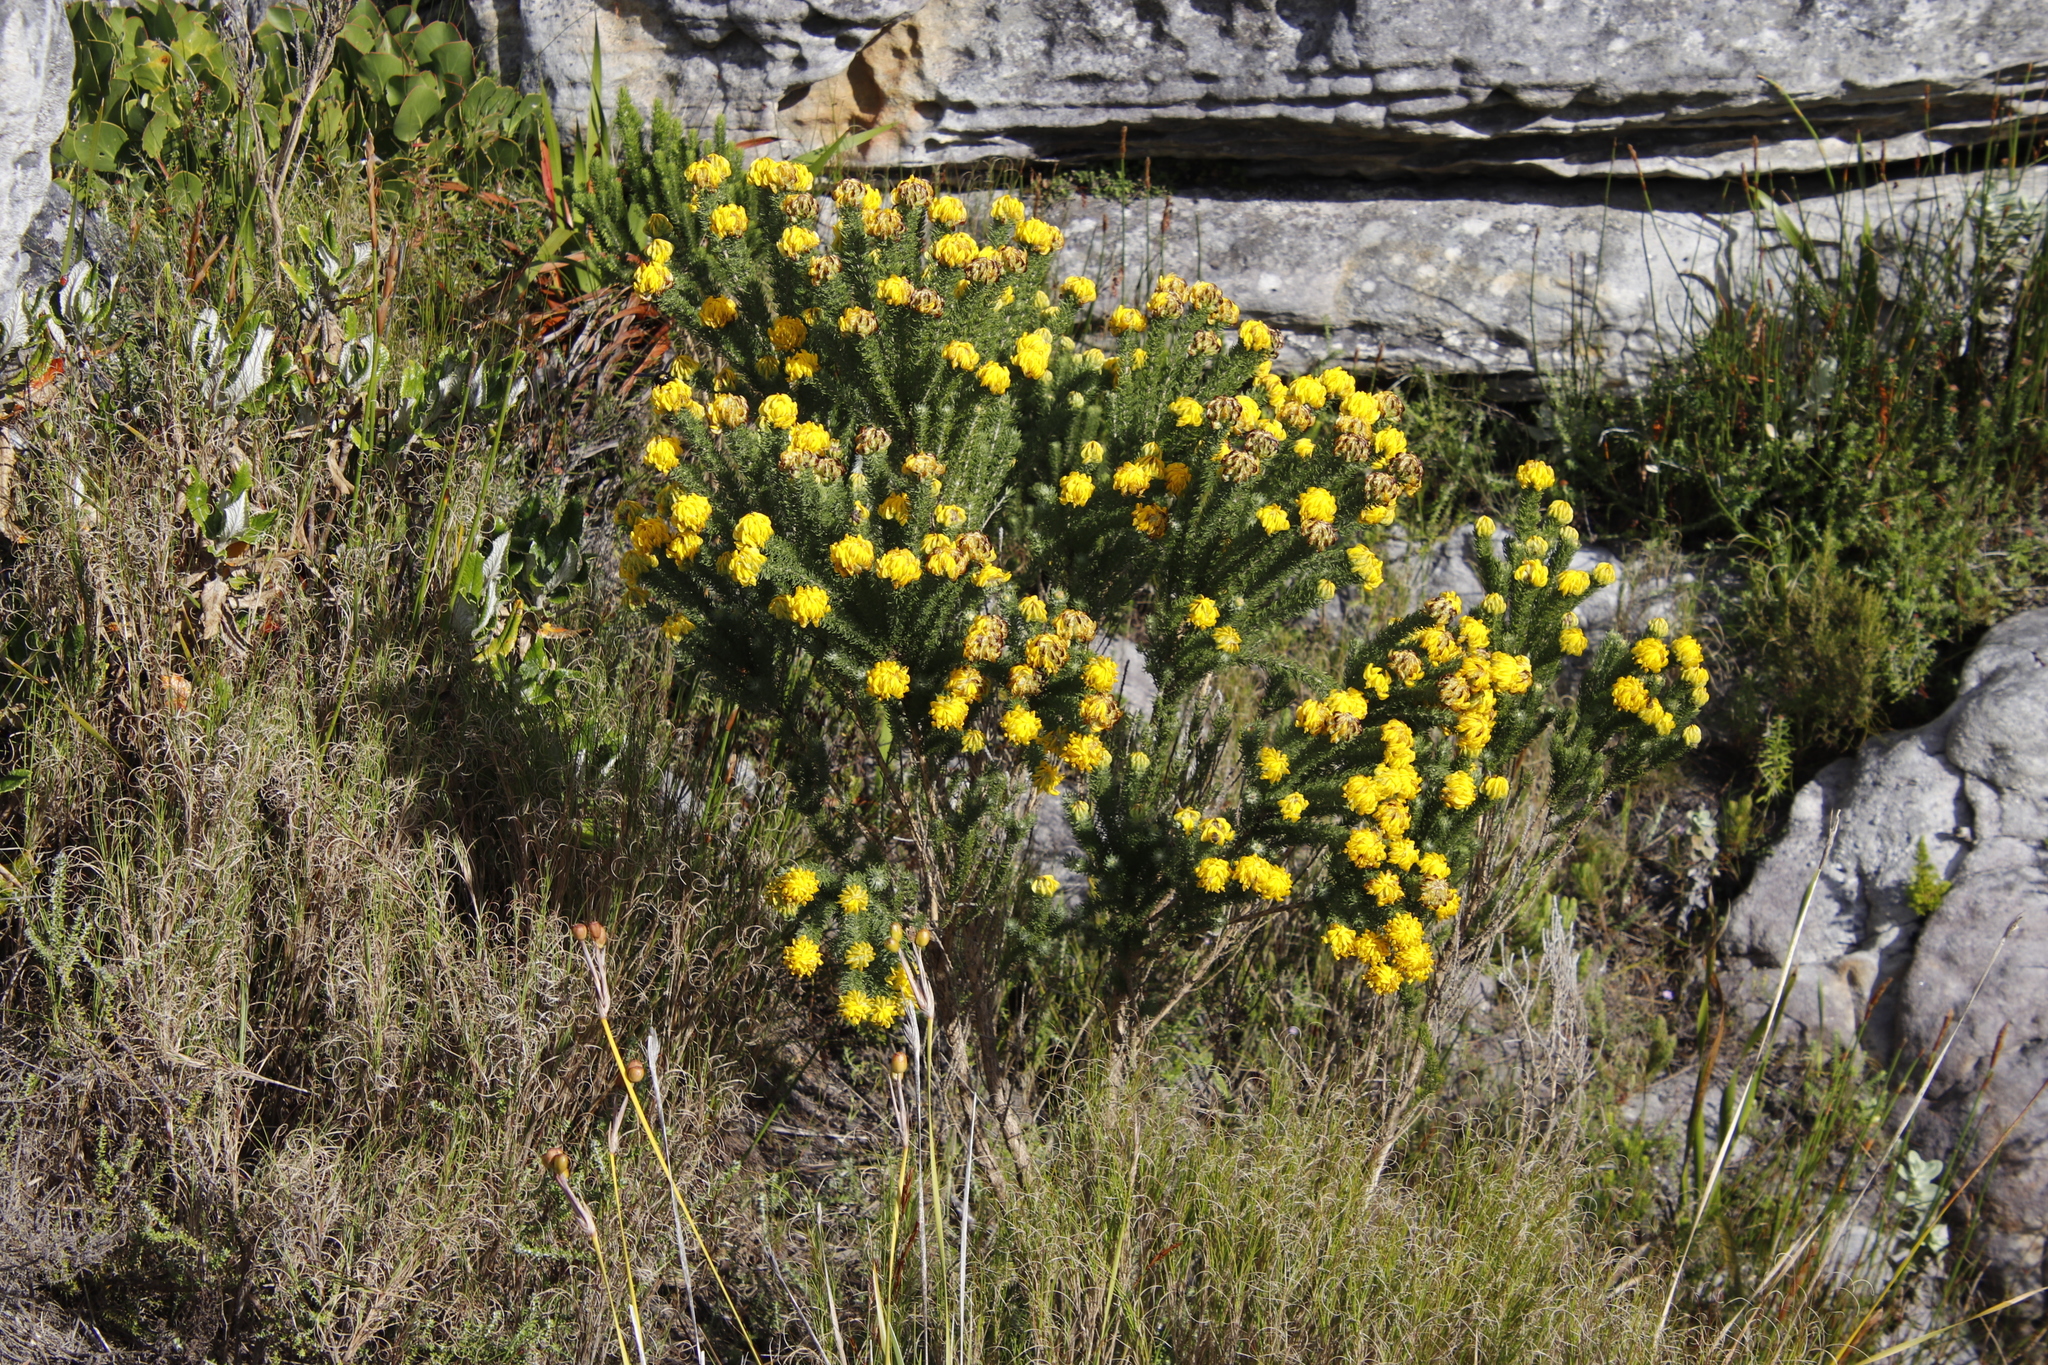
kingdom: Plantae
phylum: Tracheophyta
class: Magnoliopsida
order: Fabales
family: Fabaceae
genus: Aspalathus
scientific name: Aspalathus capitata
